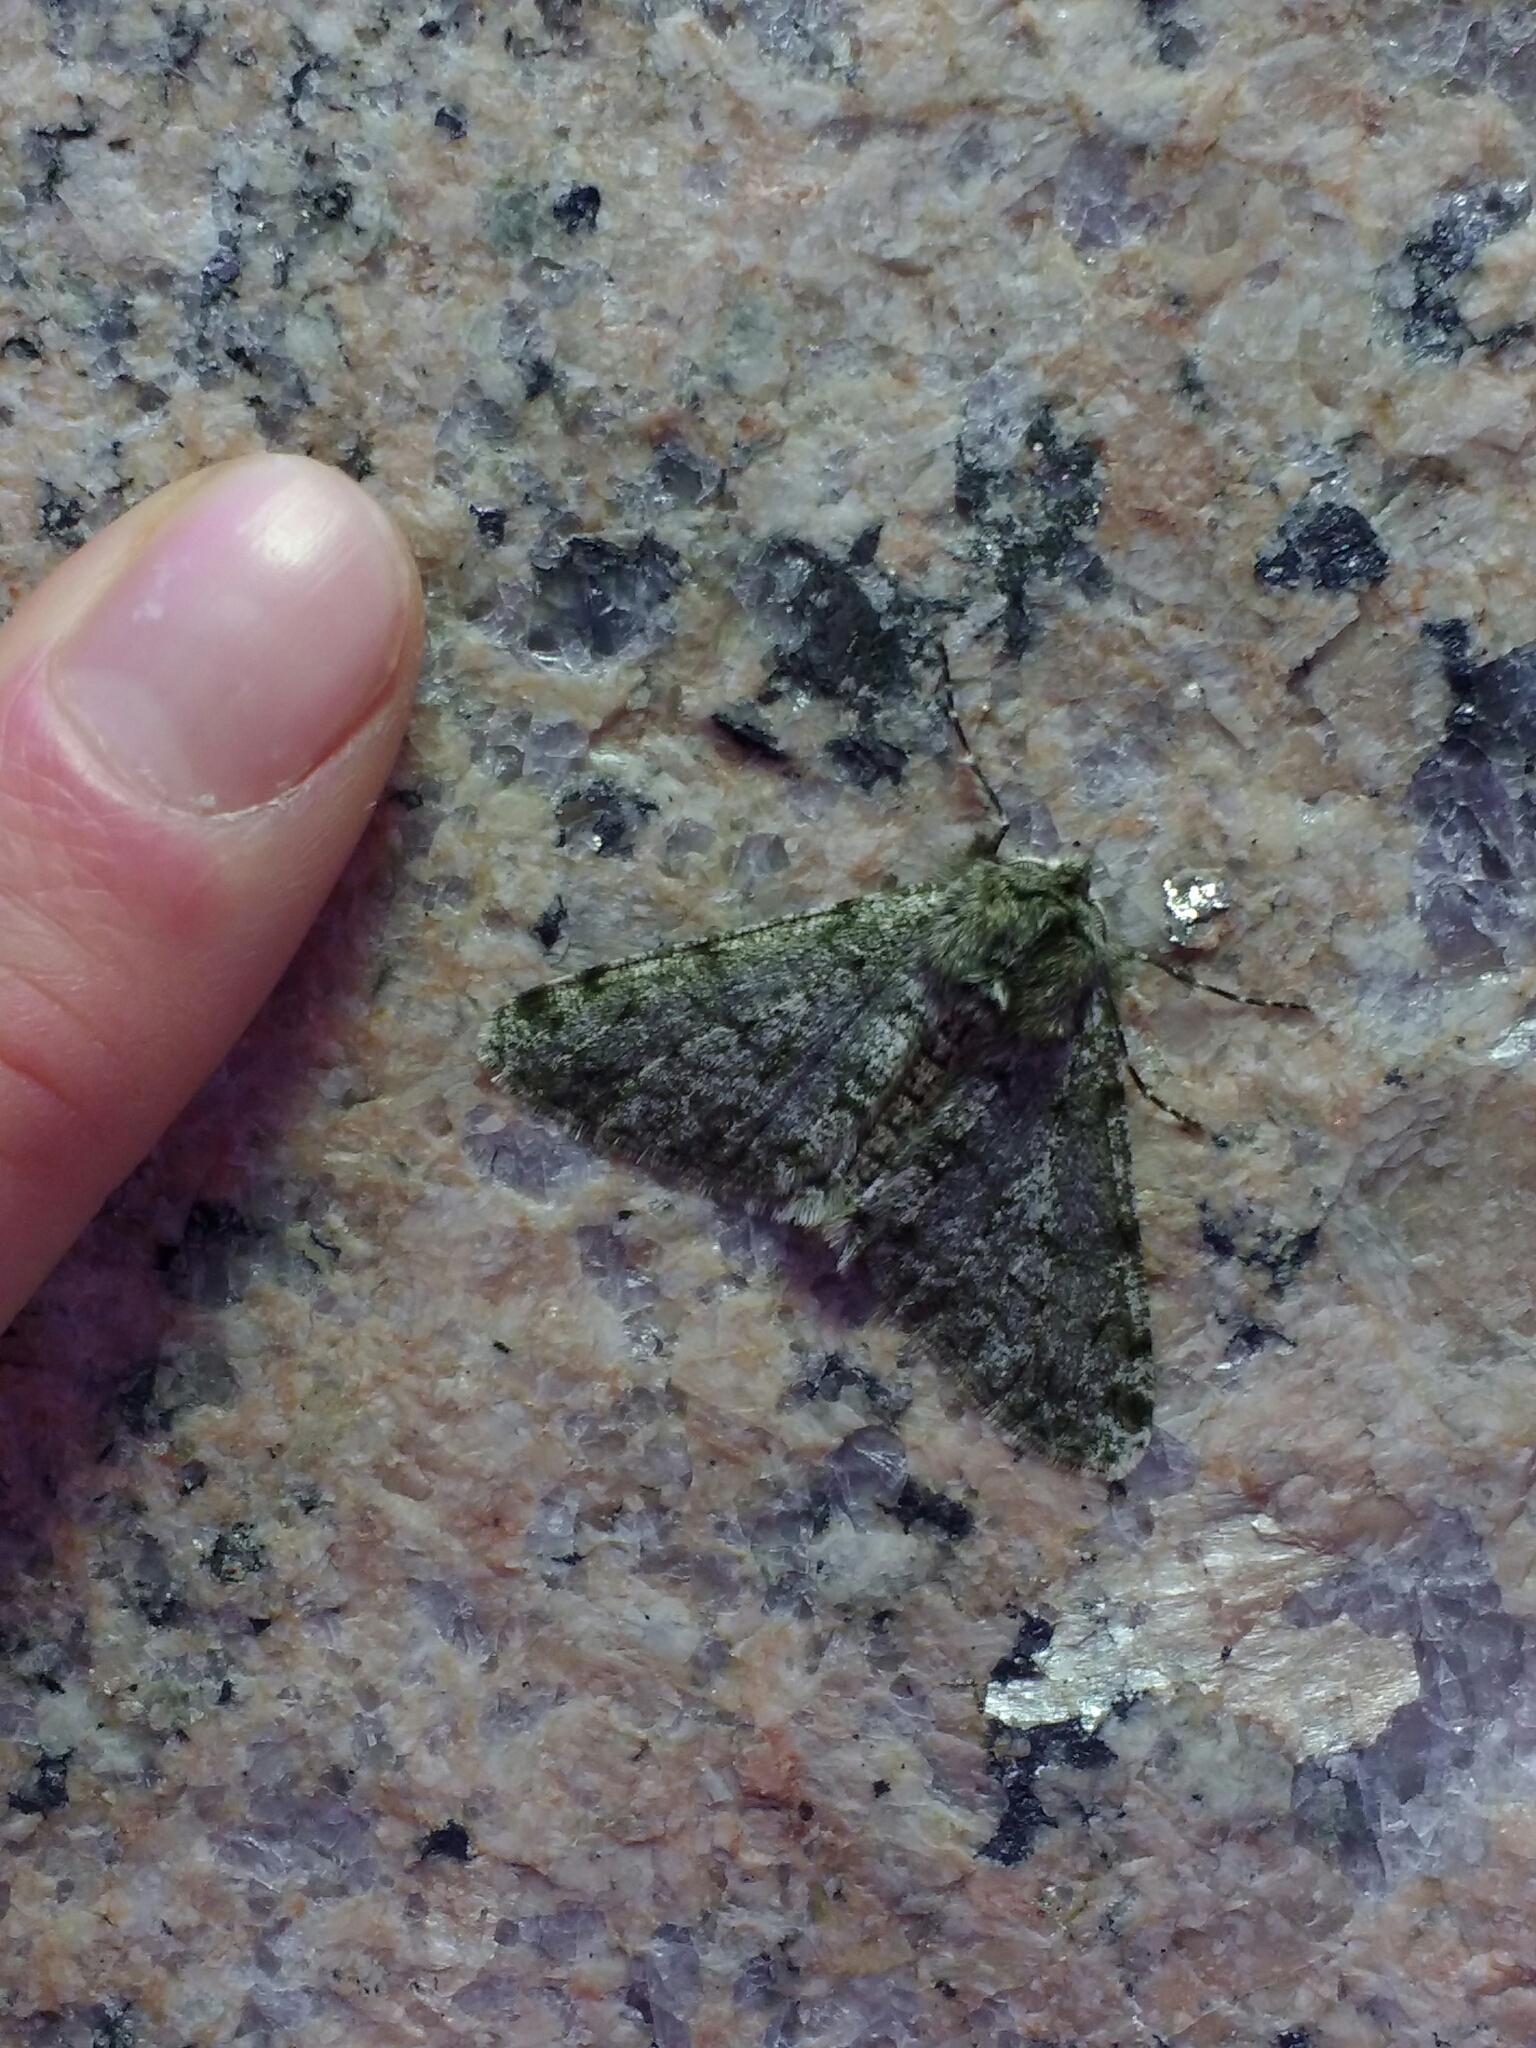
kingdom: Animalia
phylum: Arthropoda
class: Insecta
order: Lepidoptera
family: Geometridae
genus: Phigalia
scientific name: Phigalia pilosaria
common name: Pale brindled beauty
